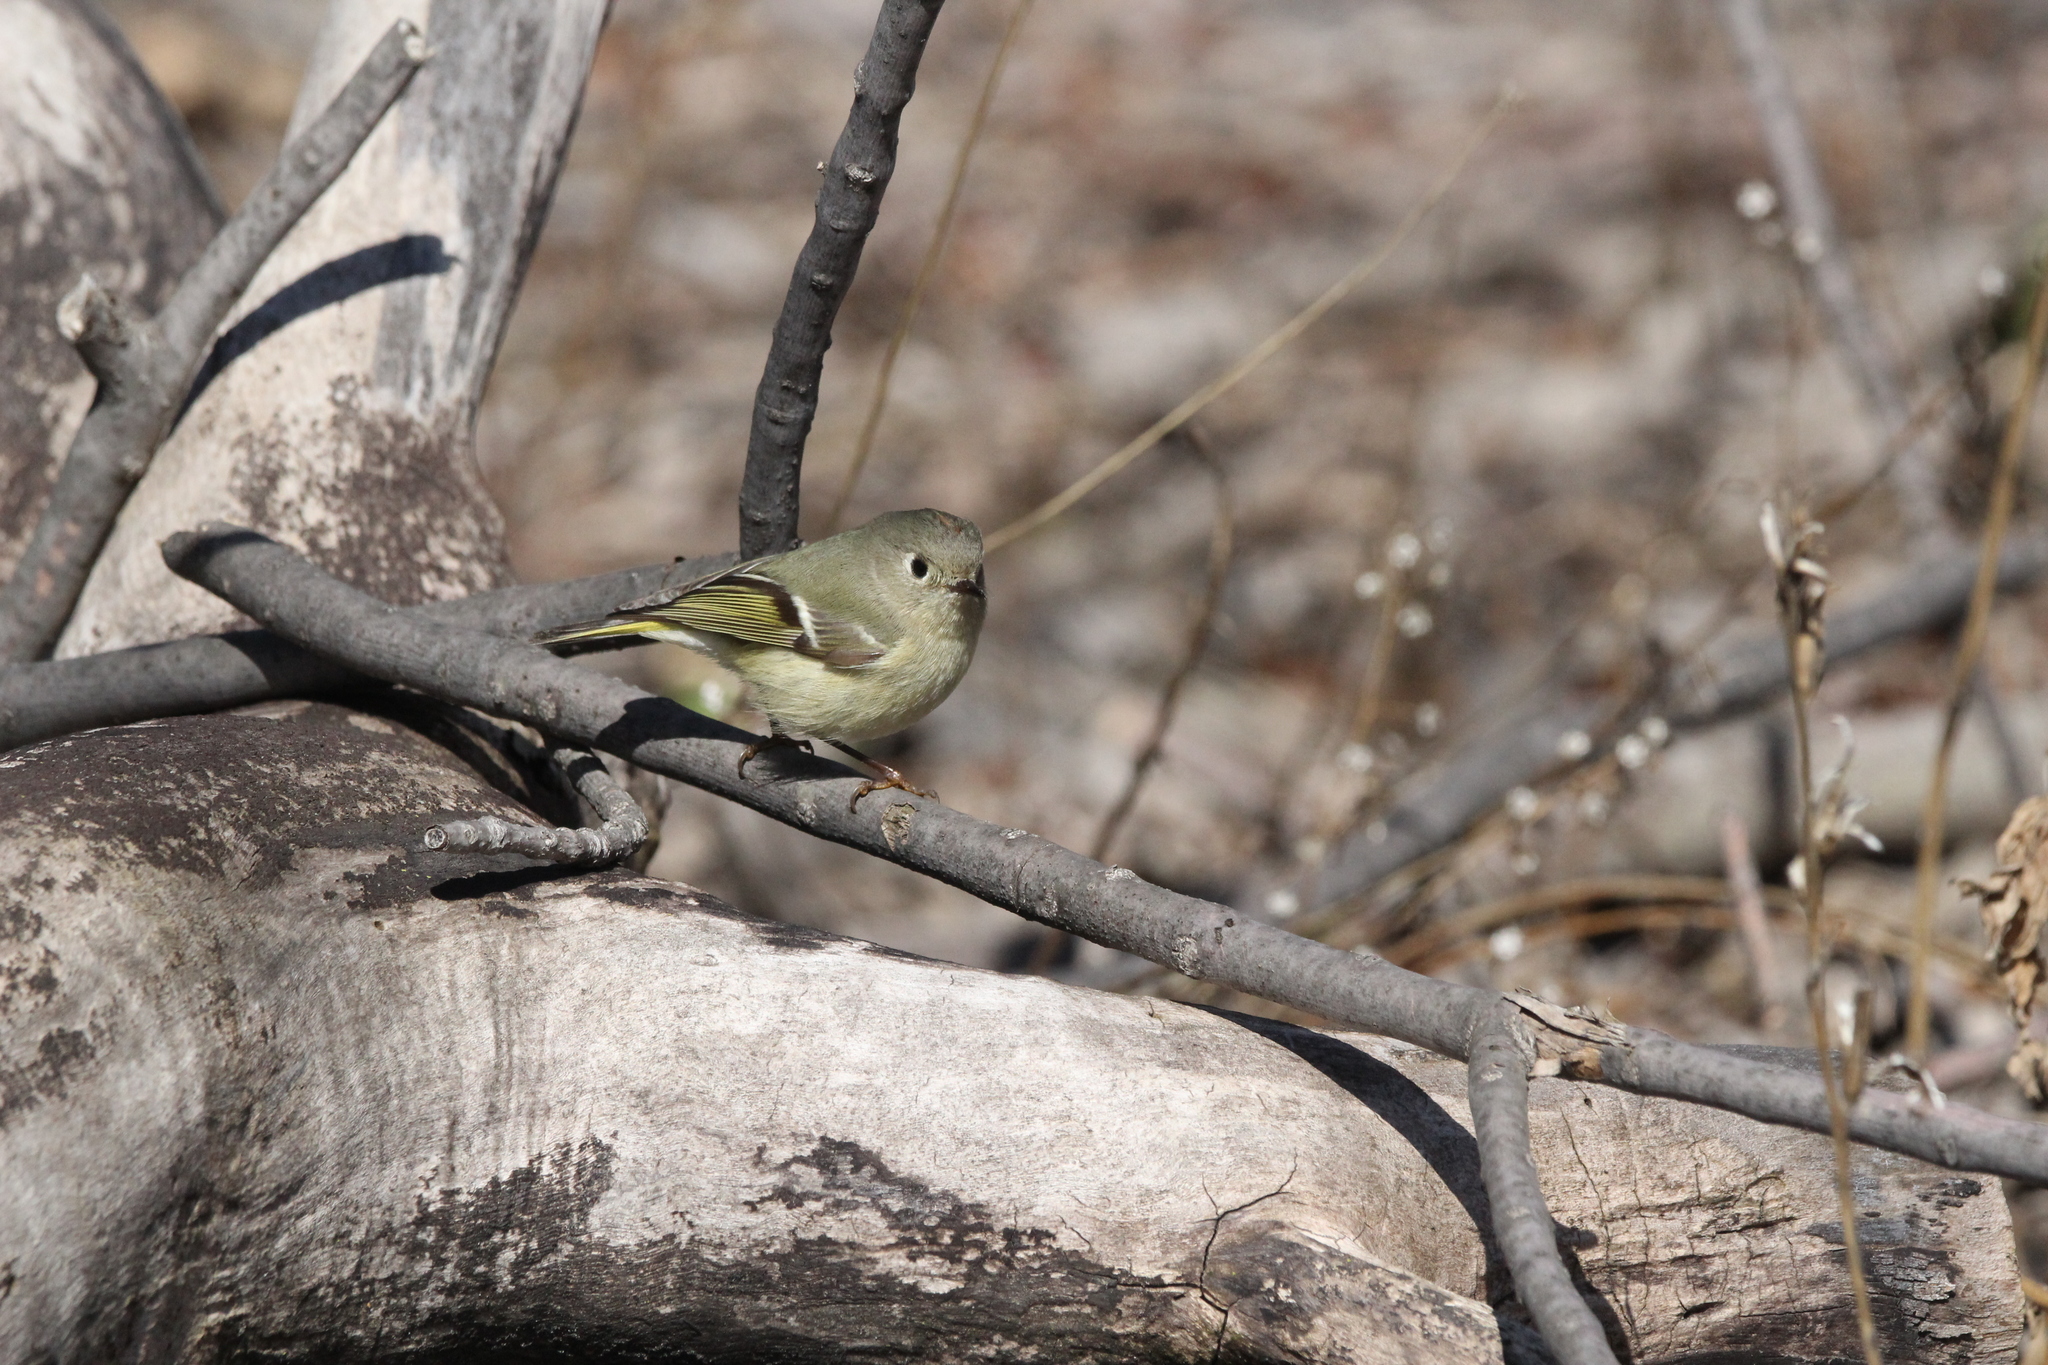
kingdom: Animalia
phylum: Chordata
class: Aves
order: Passeriformes
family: Regulidae
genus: Regulus
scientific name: Regulus calendula
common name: Ruby-crowned kinglet
